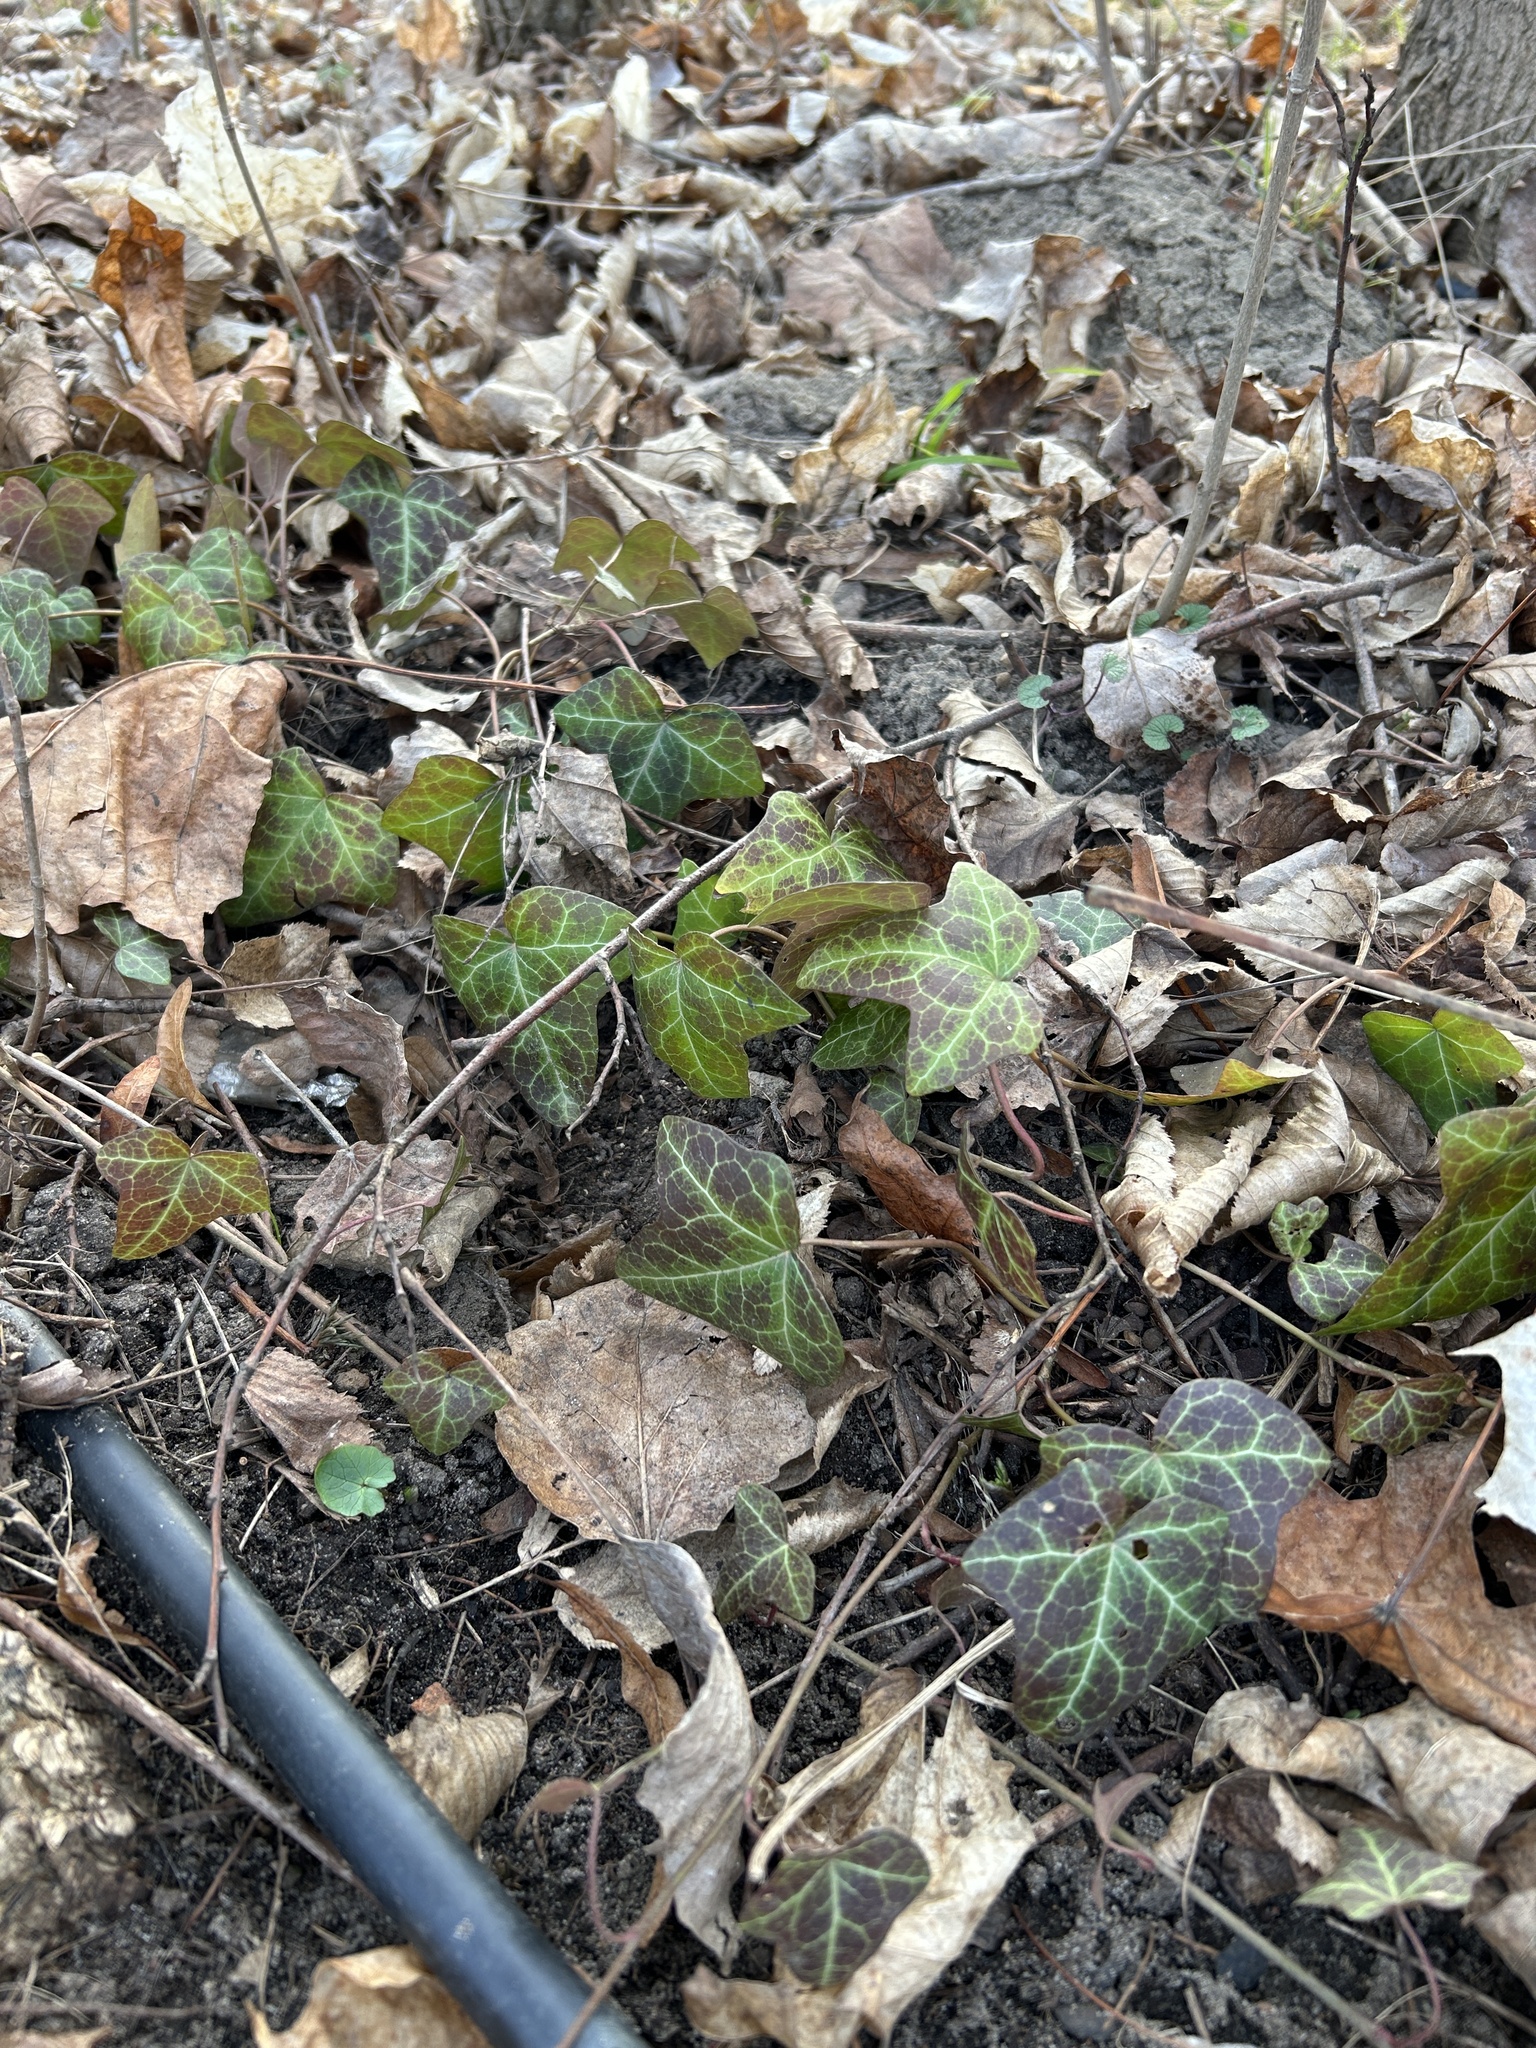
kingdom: Plantae
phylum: Tracheophyta
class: Magnoliopsida
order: Apiales
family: Araliaceae
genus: Hedera
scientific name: Hedera helix
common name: Ivy
